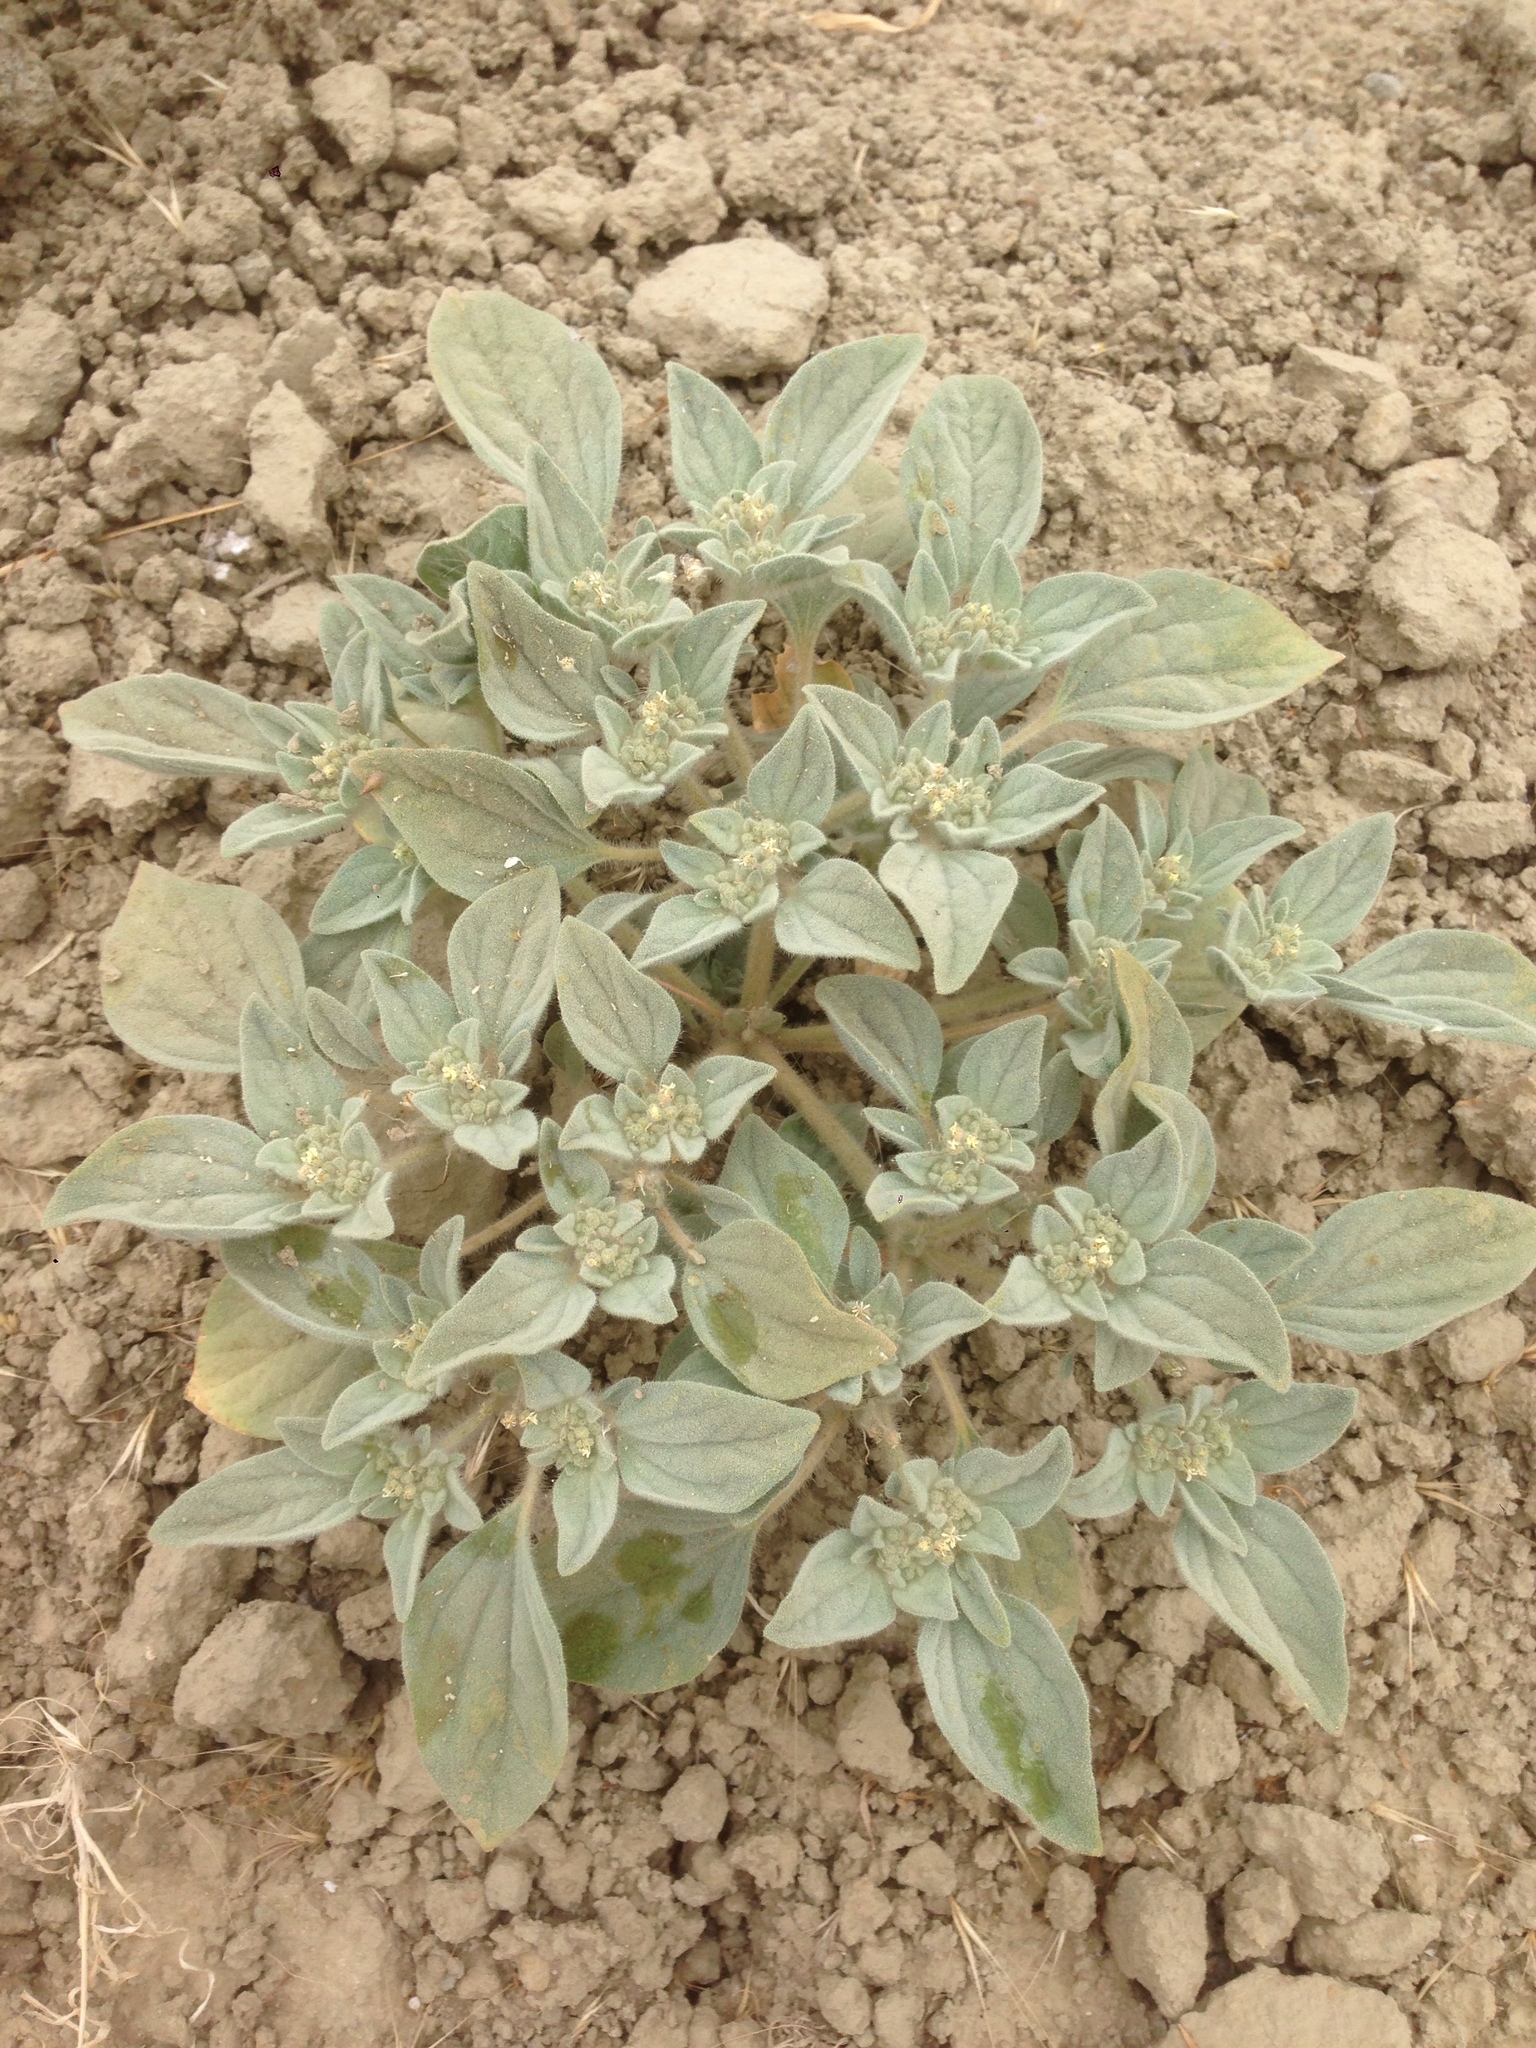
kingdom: Plantae
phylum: Tracheophyta
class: Magnoliopsida
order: Malpighiales
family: Euphorbiaceae
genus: Croton
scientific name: Croton setiger
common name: Dove weed
